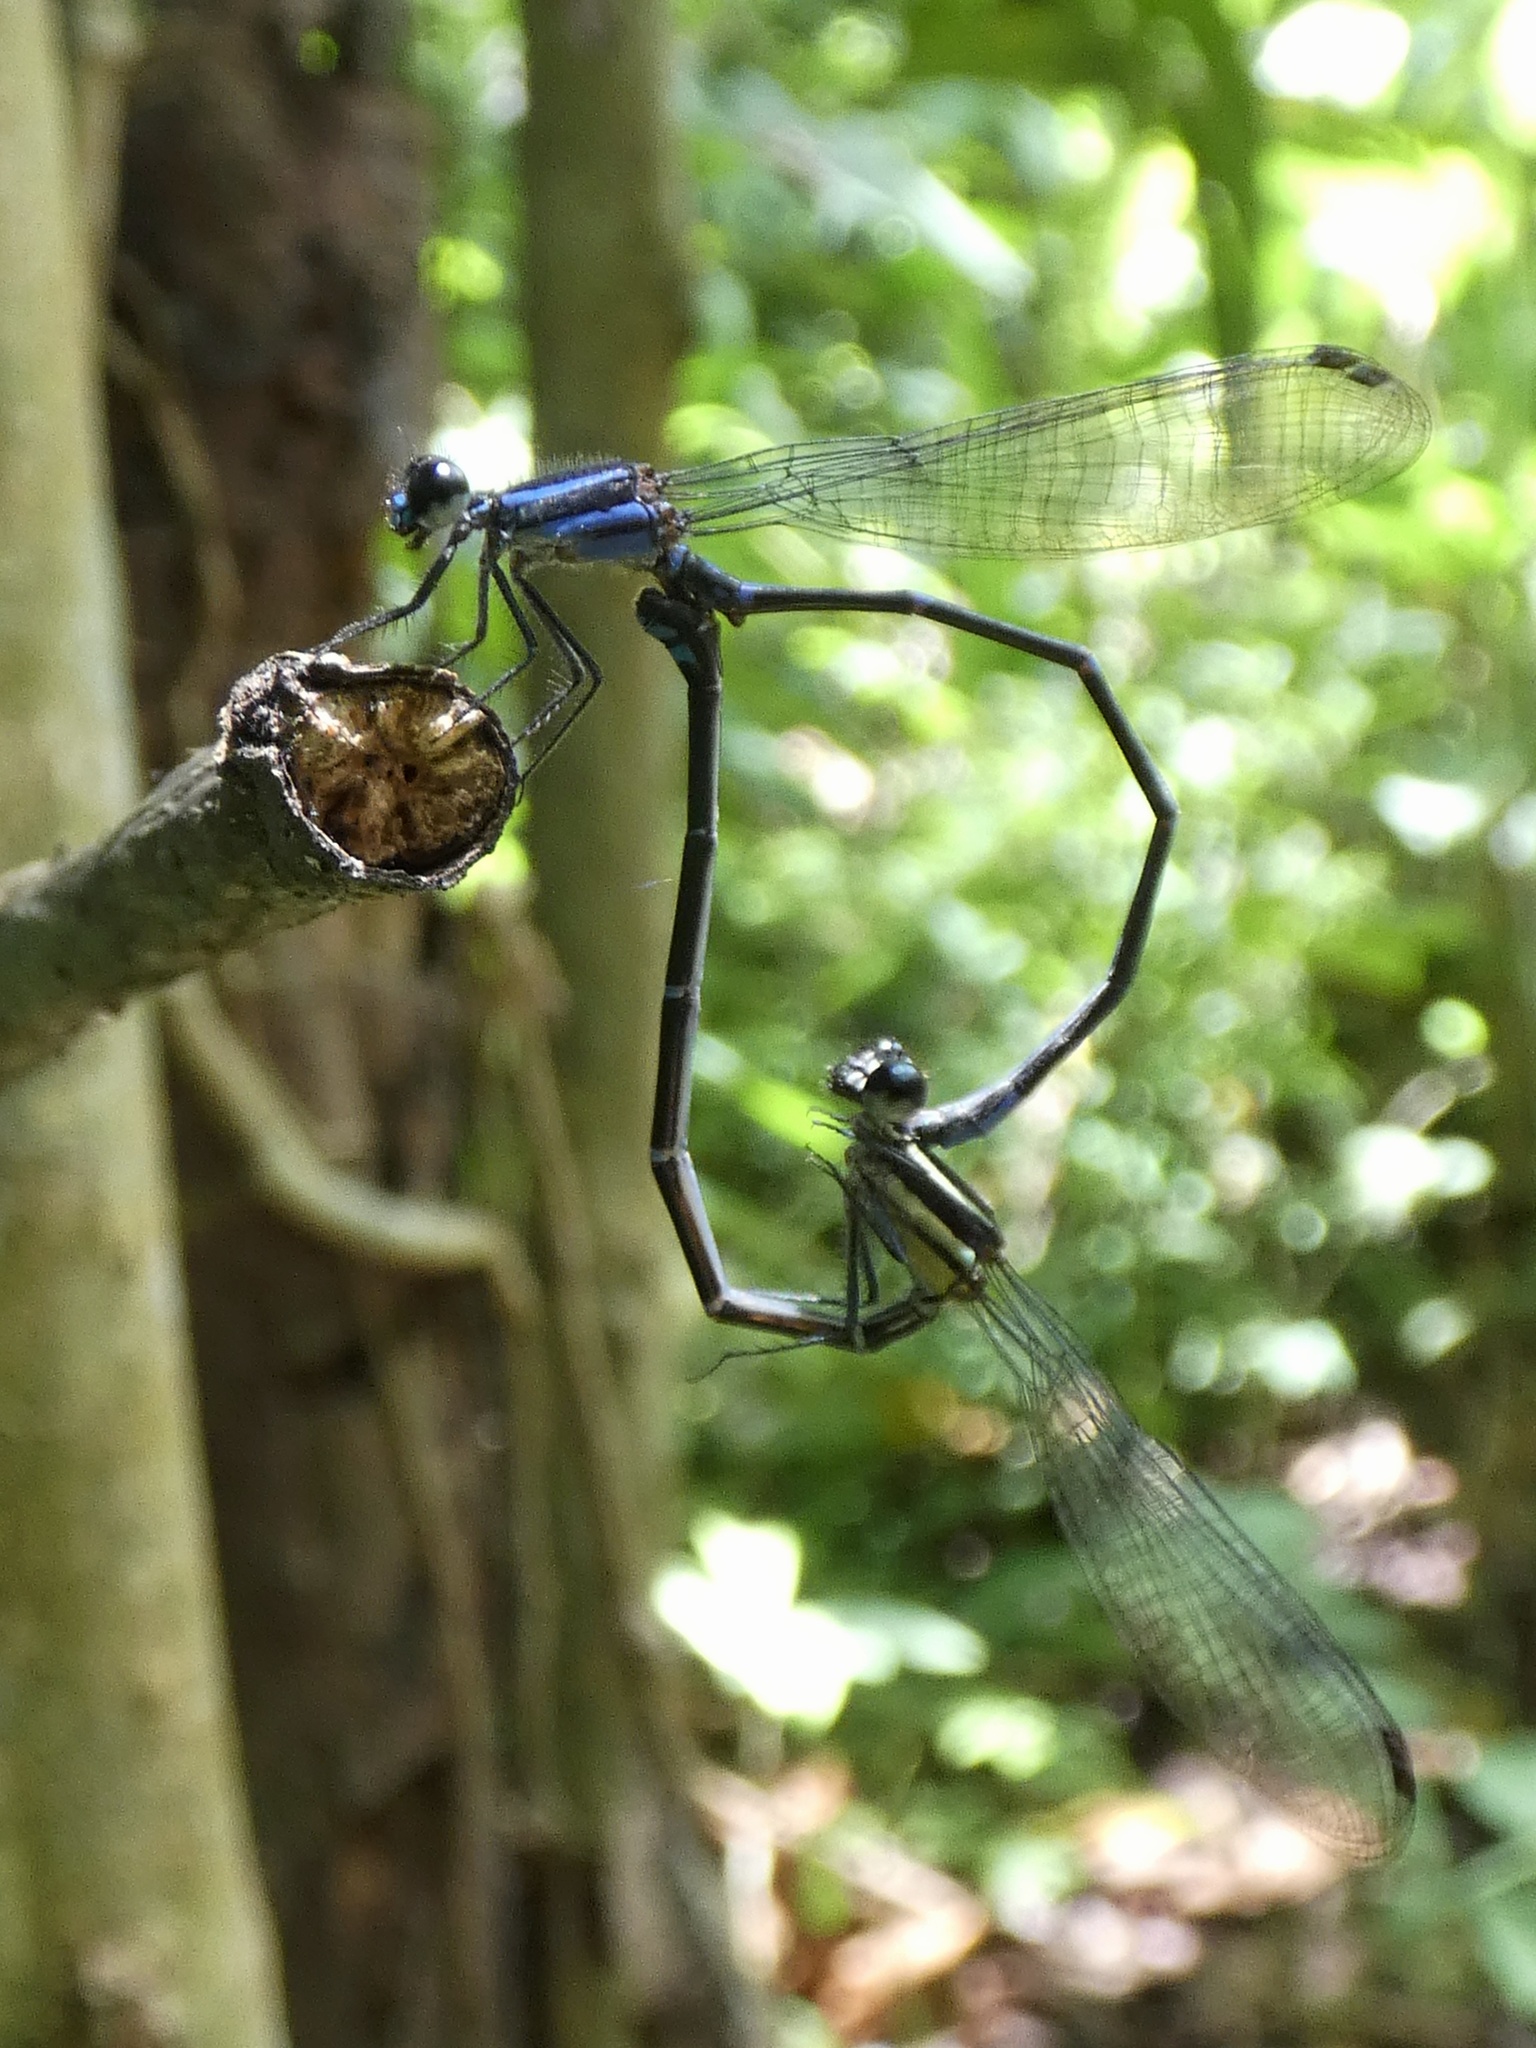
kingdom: Animalia
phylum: Arthropoda
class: Insecta
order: Odonata
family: Coenagrionidae
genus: Argia
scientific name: Argia oculata
